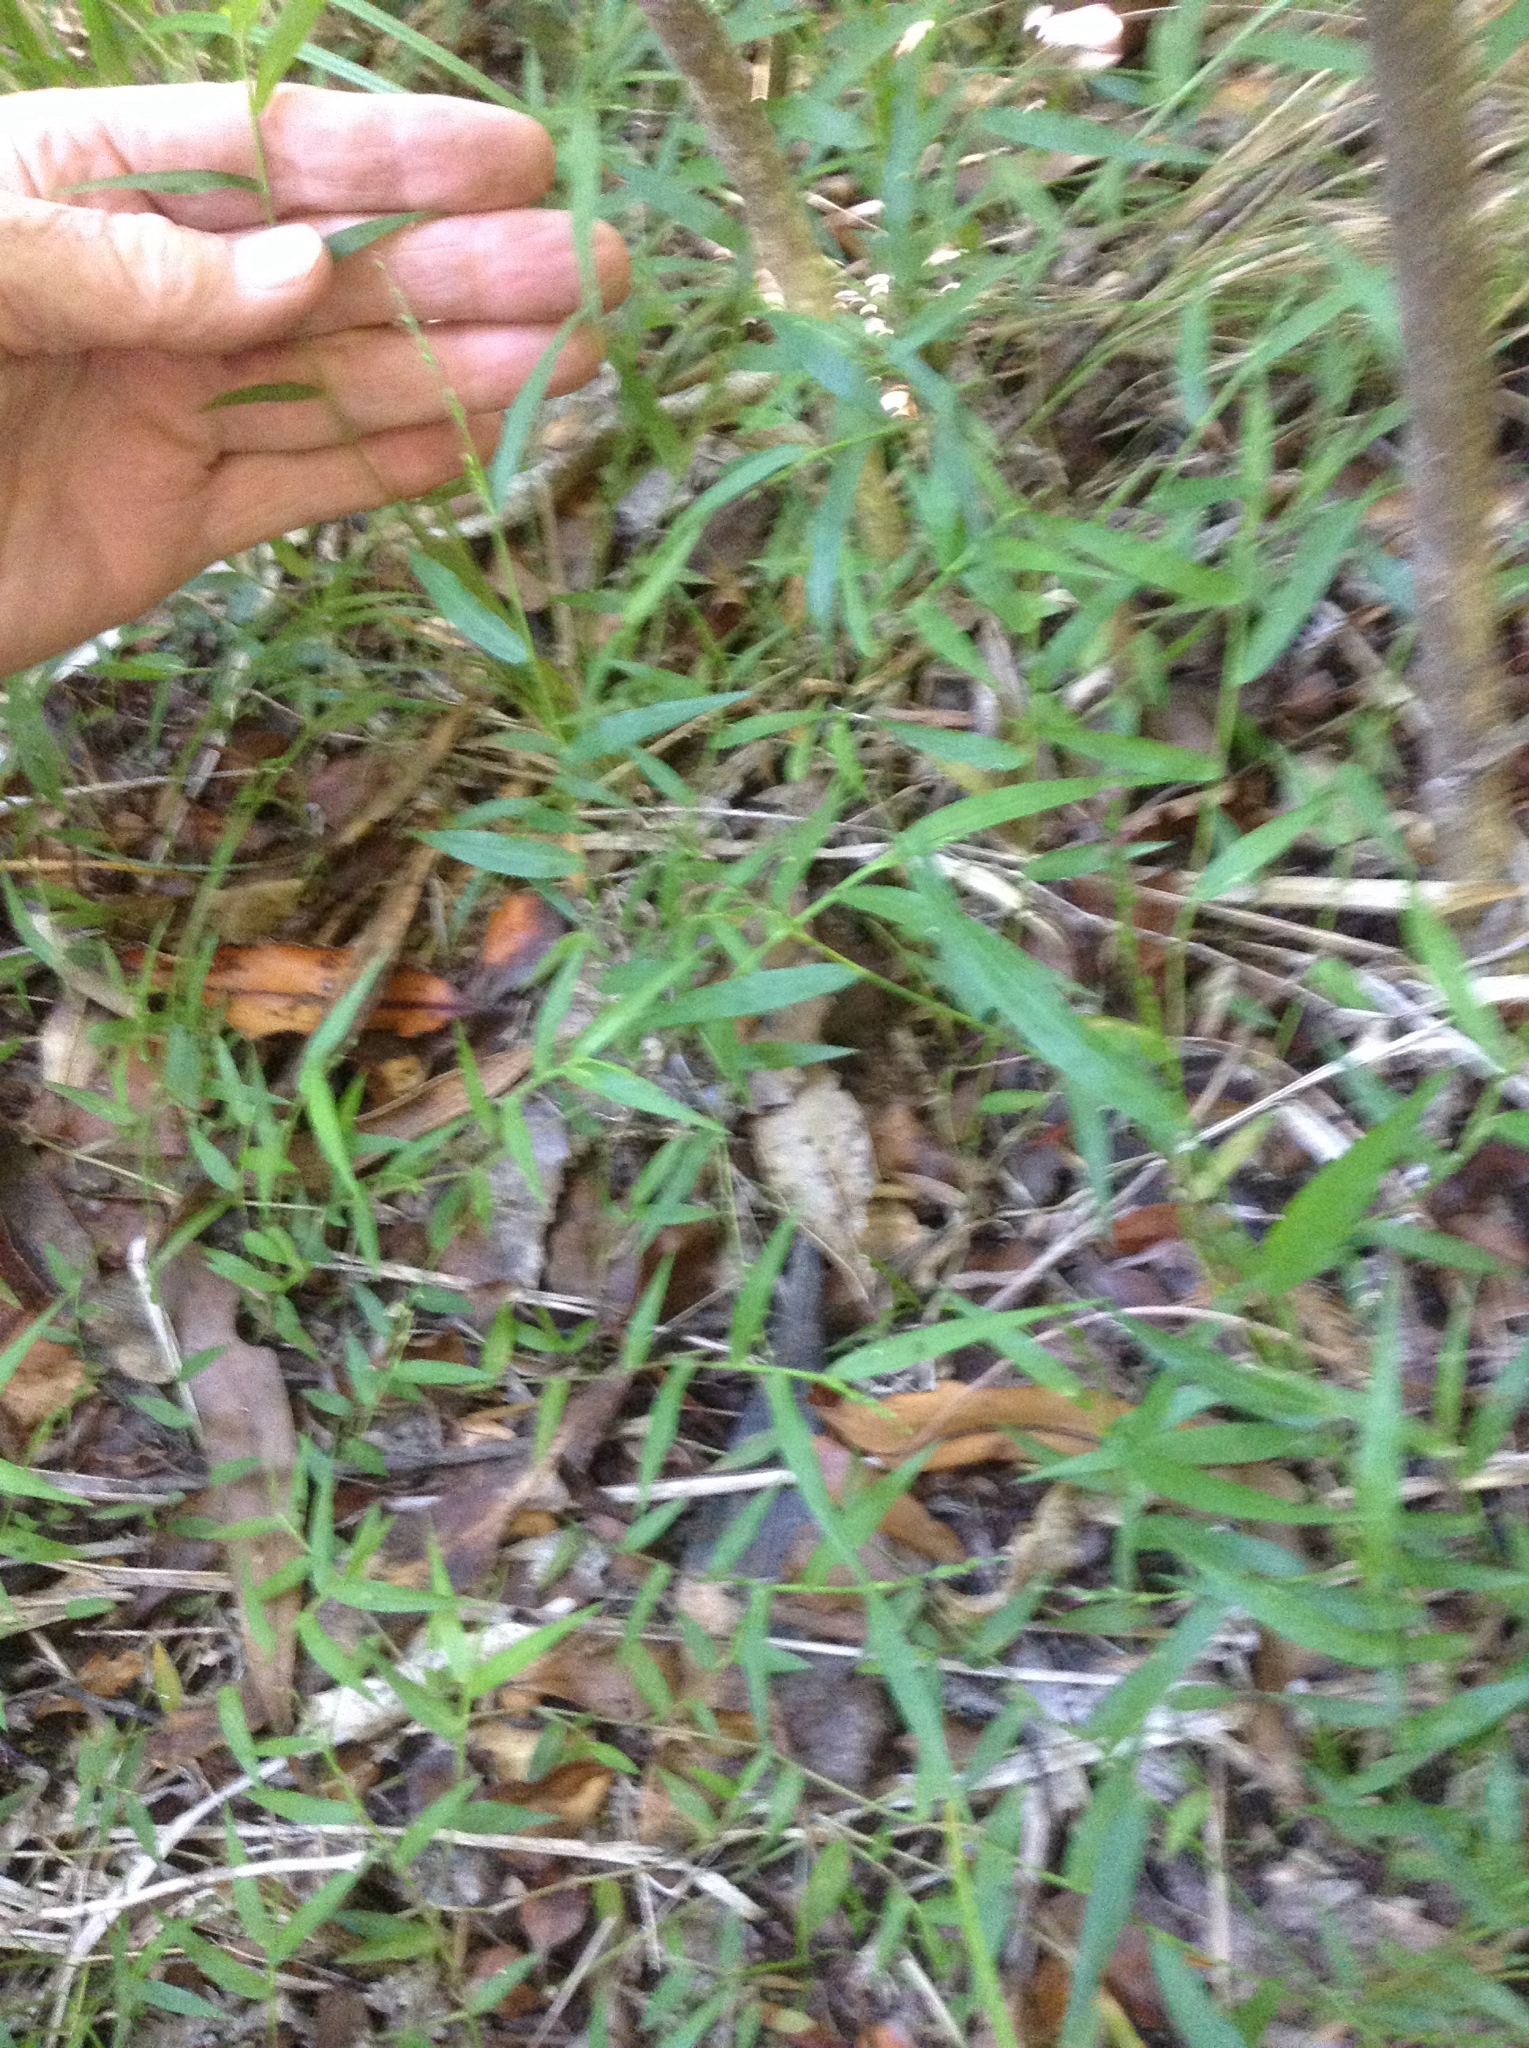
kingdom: Plantae
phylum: Tracheophyta
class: Liliopsida
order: Poales
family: Poaceae
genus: Oplismenus
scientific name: Oplismenus hirtellus
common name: Basketgrass
